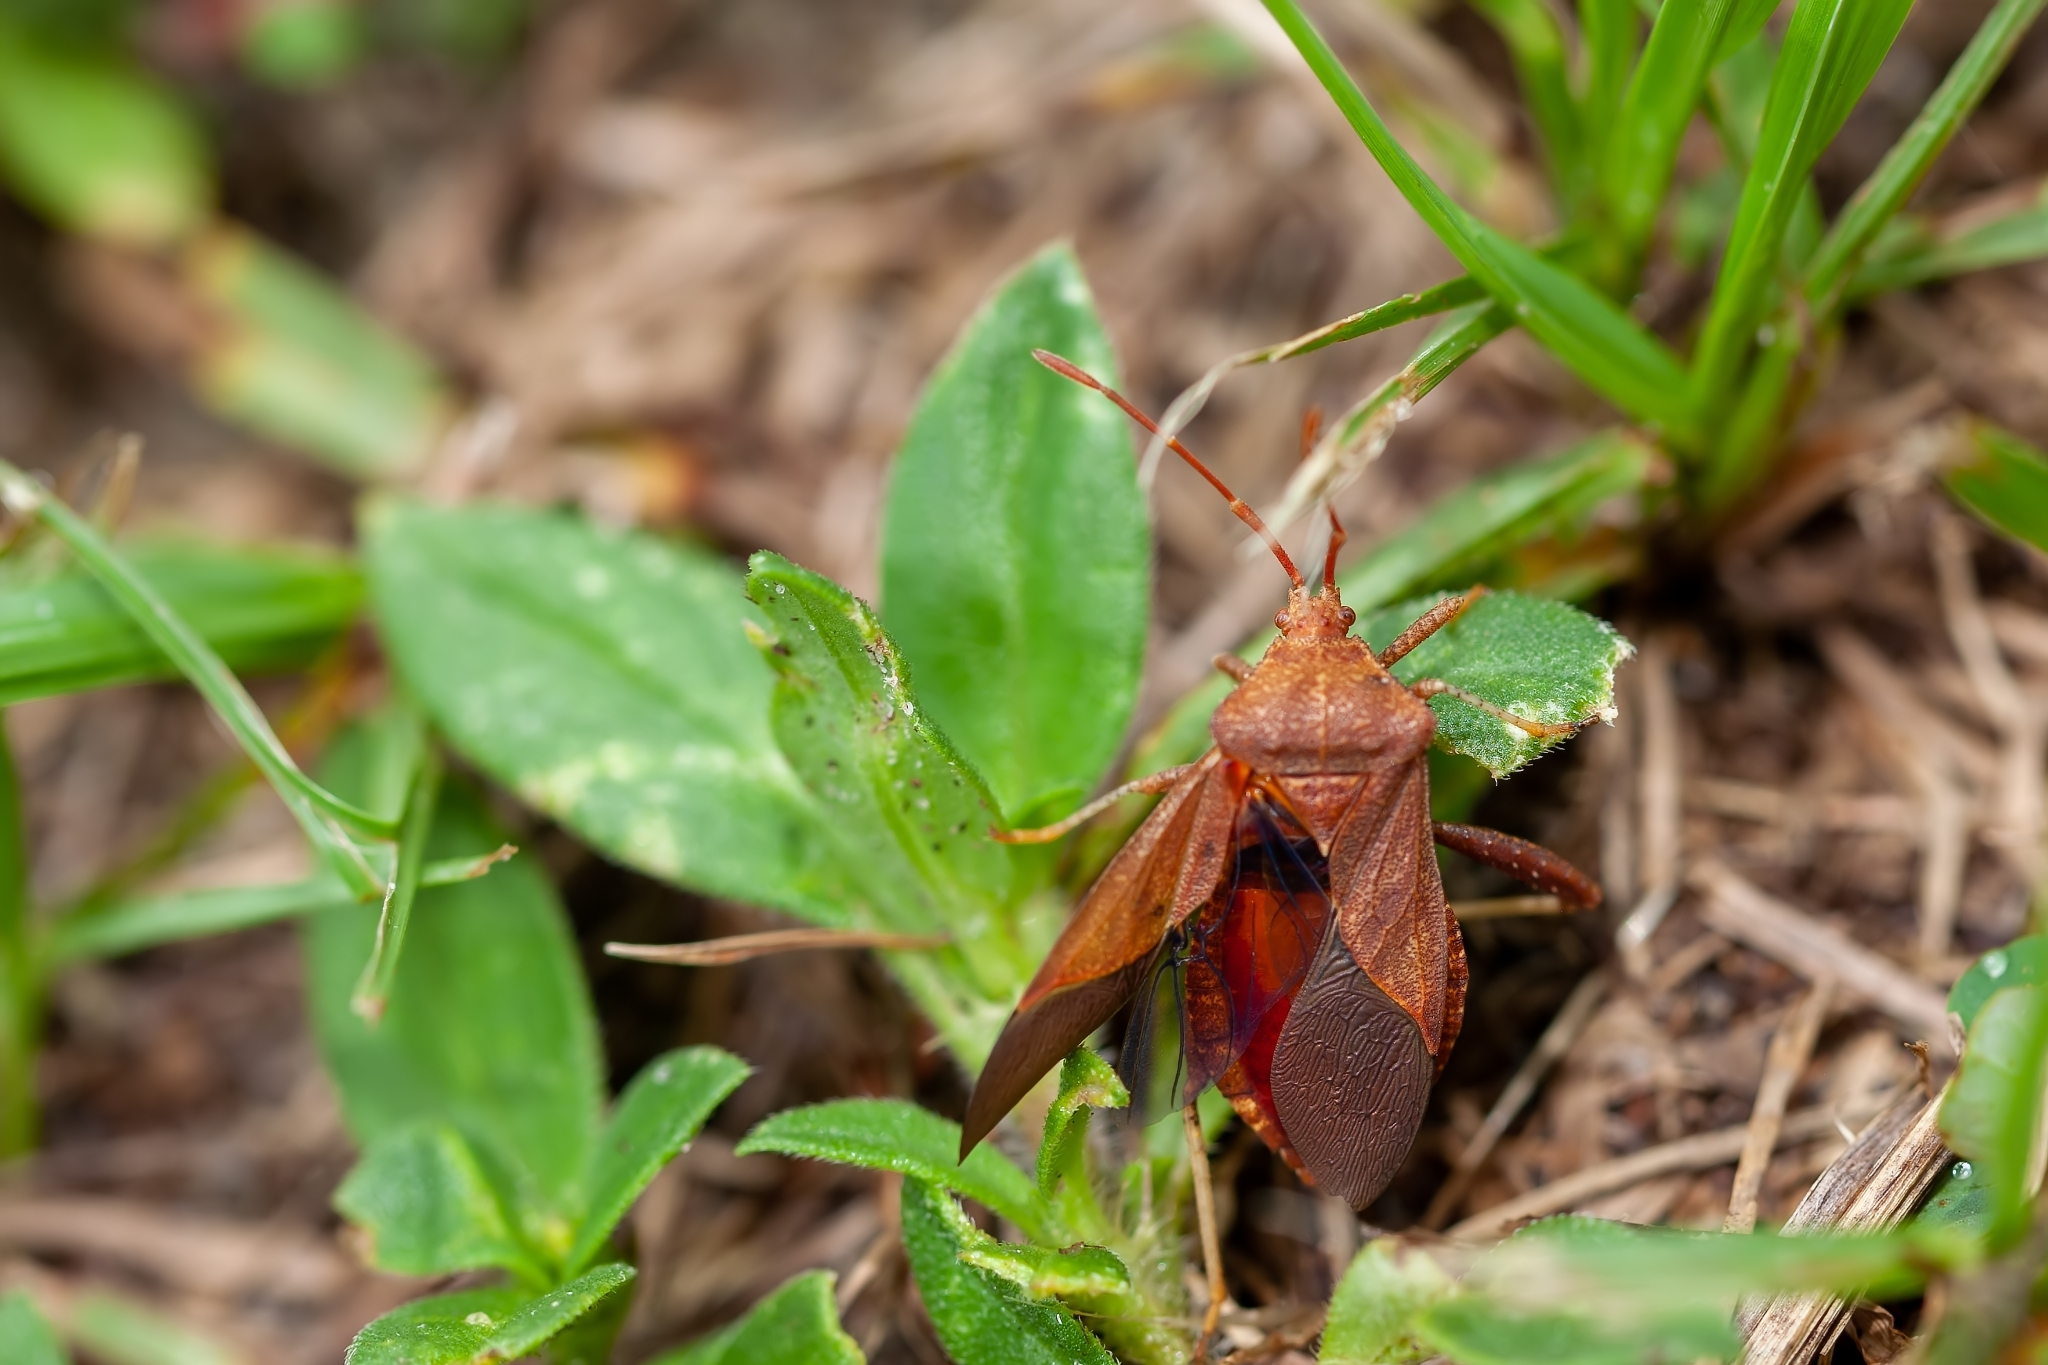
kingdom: Animalia
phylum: Arthropoda
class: Insecta
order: Hemiptera
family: Coreidae
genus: Euthochtha
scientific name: Euthochtha galeator
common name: Helmeted squash bug
